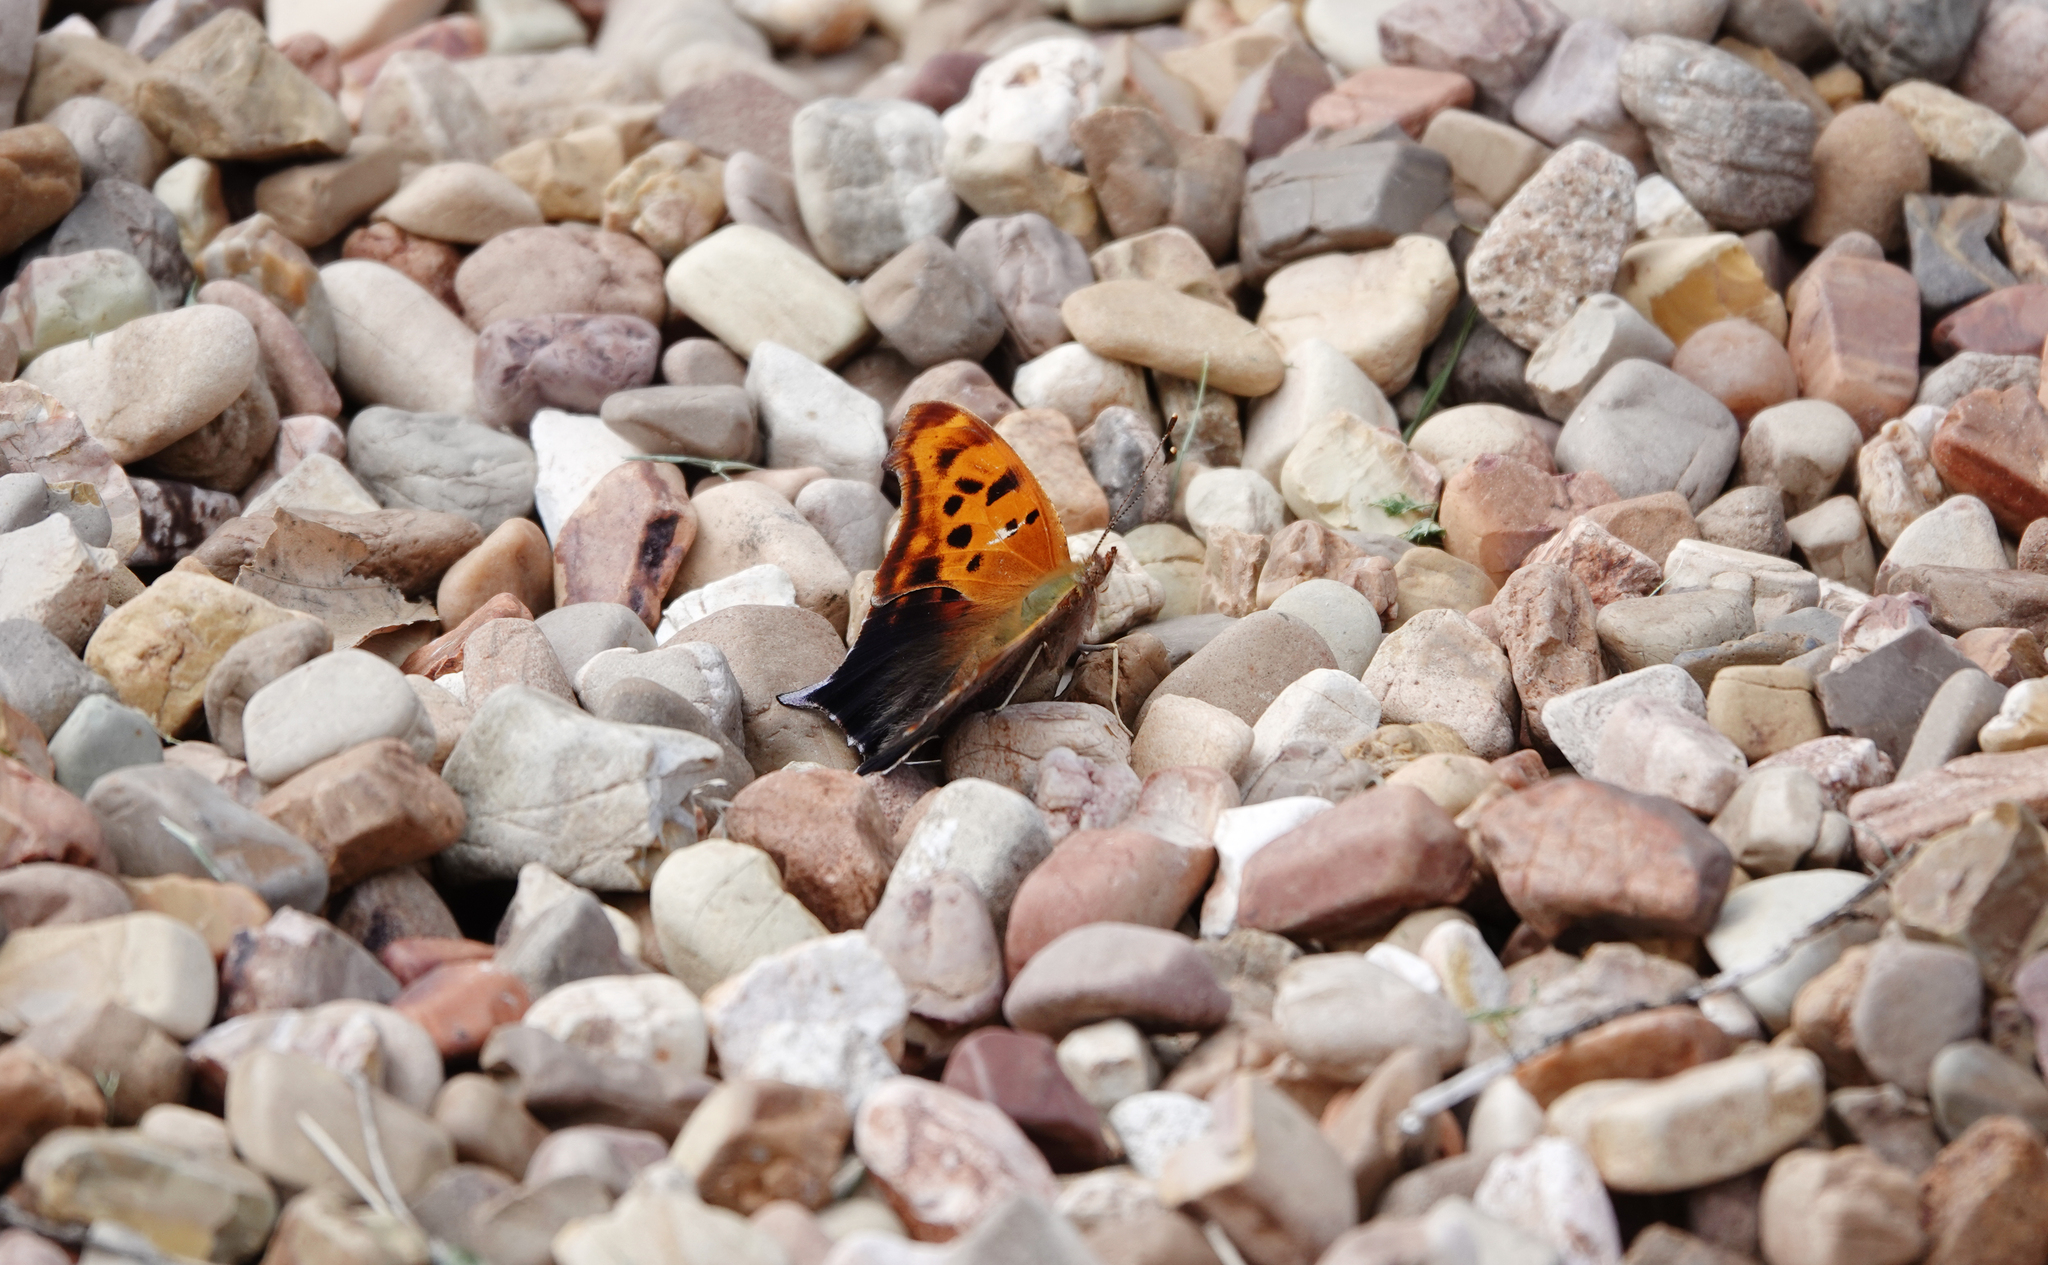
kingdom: Animalia
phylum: Arthropoda
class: Insecta
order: Lepidoptera
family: Nymphalidae
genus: Polygonia
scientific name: Polygonia interrogationis
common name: Question mark
